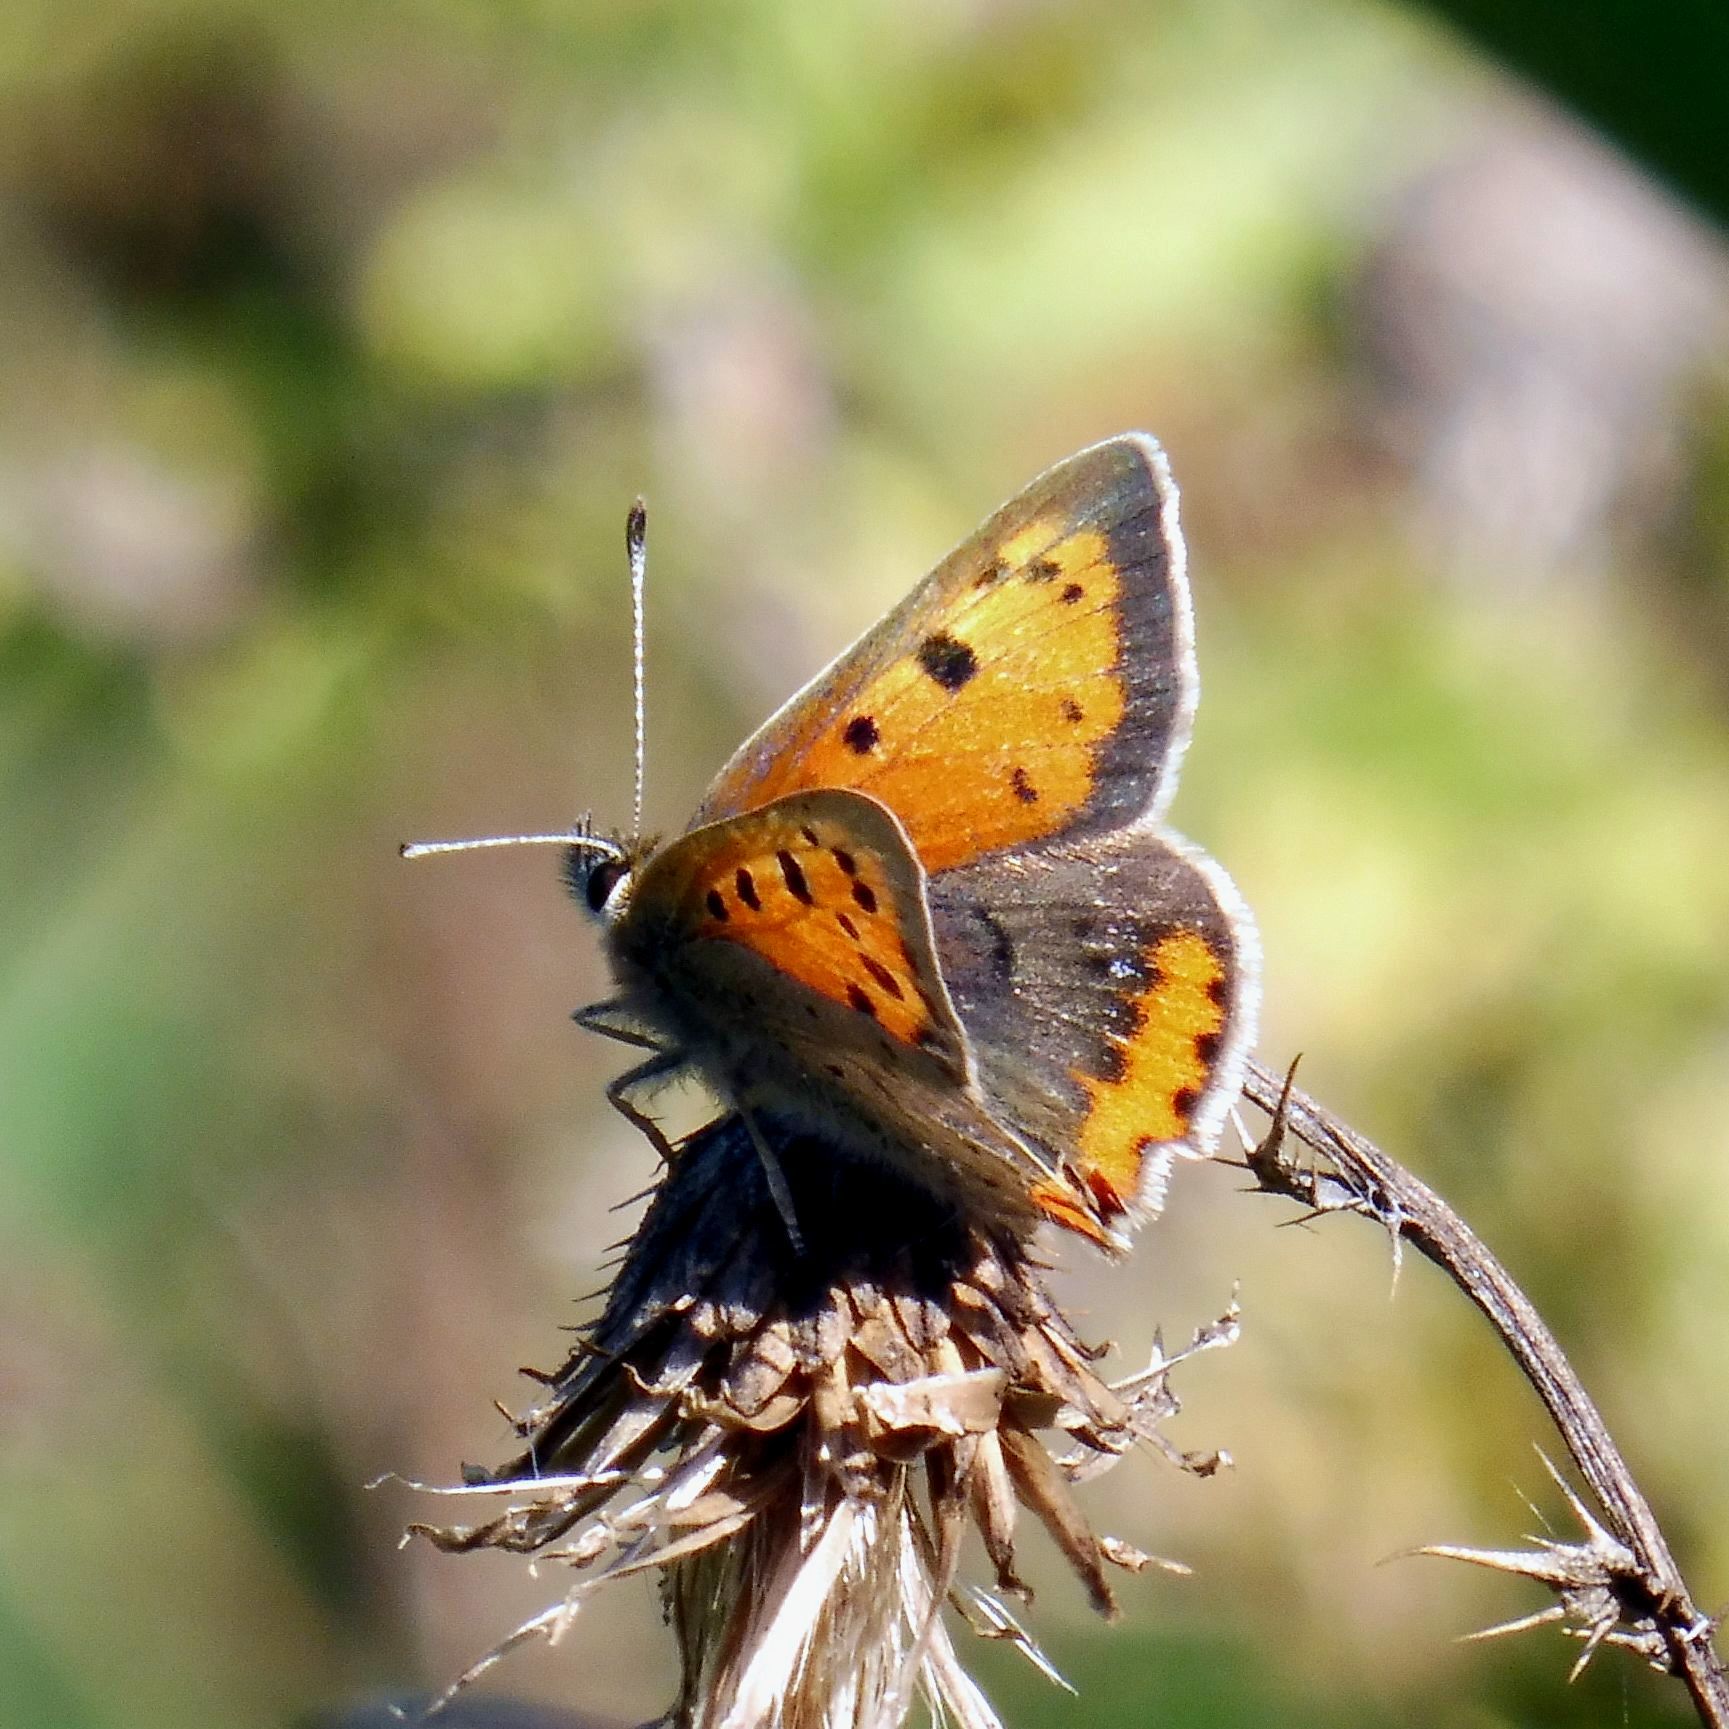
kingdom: Animalia
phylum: Arthropoda
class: Insecta
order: Lepidoptera
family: Lycaenidae
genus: Lycaena
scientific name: Lycaena phlaeas
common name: Small copper
